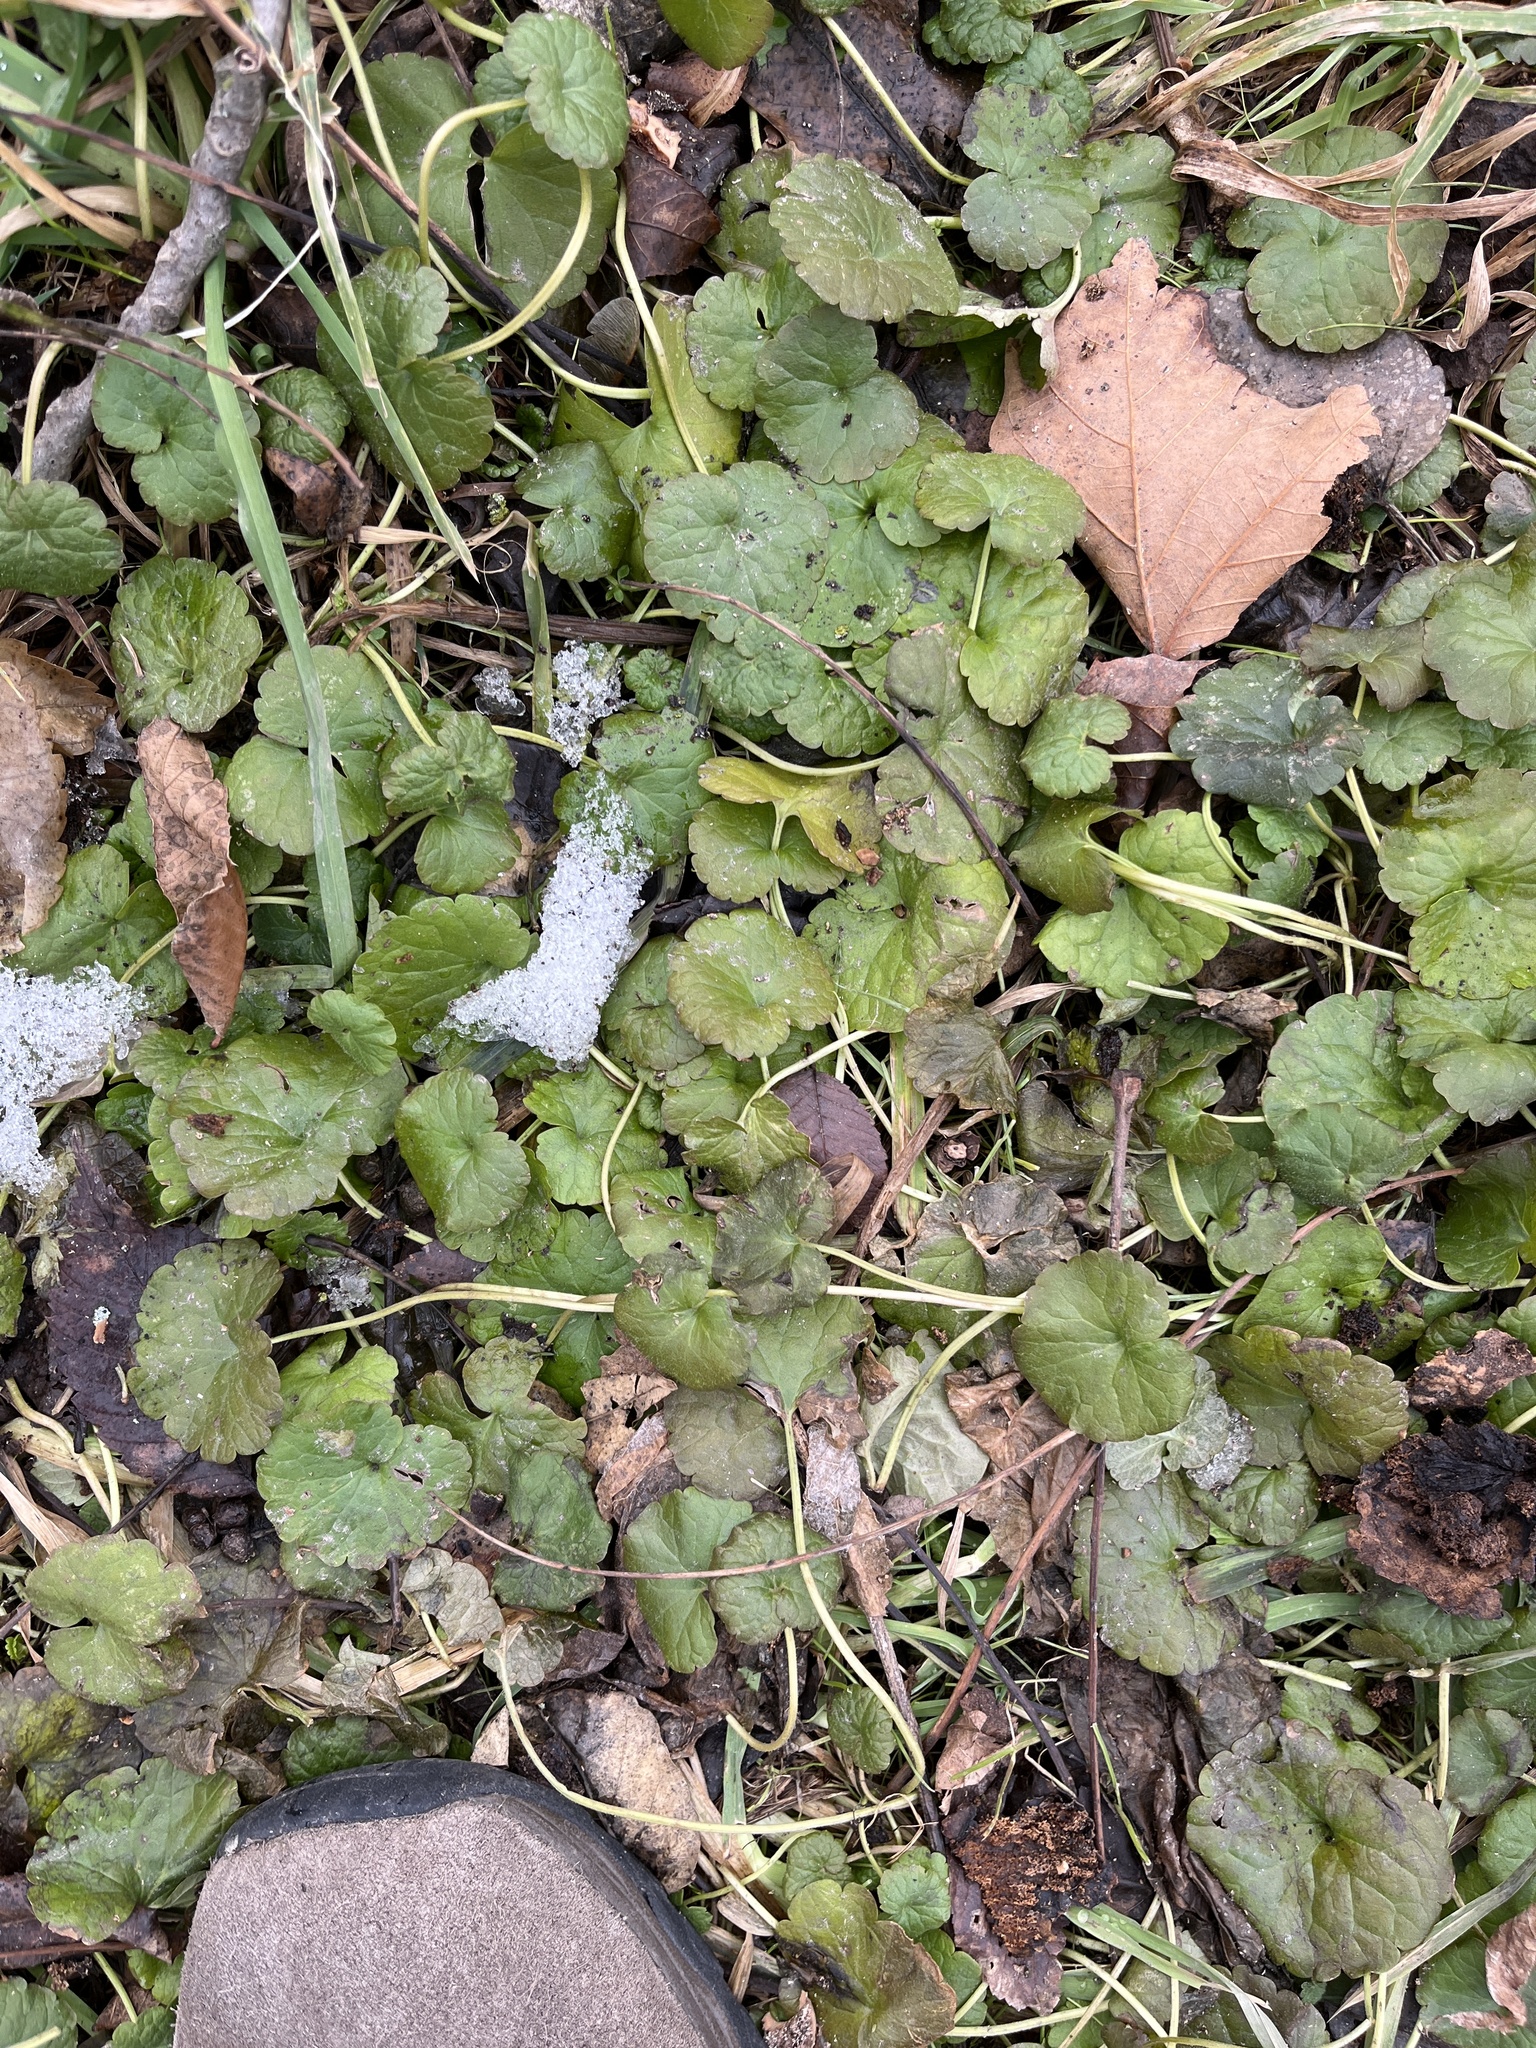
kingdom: Plantae
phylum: Tracheophyta
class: Magnoliopsida
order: Lamiales
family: Lamiaceae
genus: Glechoma
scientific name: Glechoma hederacea
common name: Ground ivy
